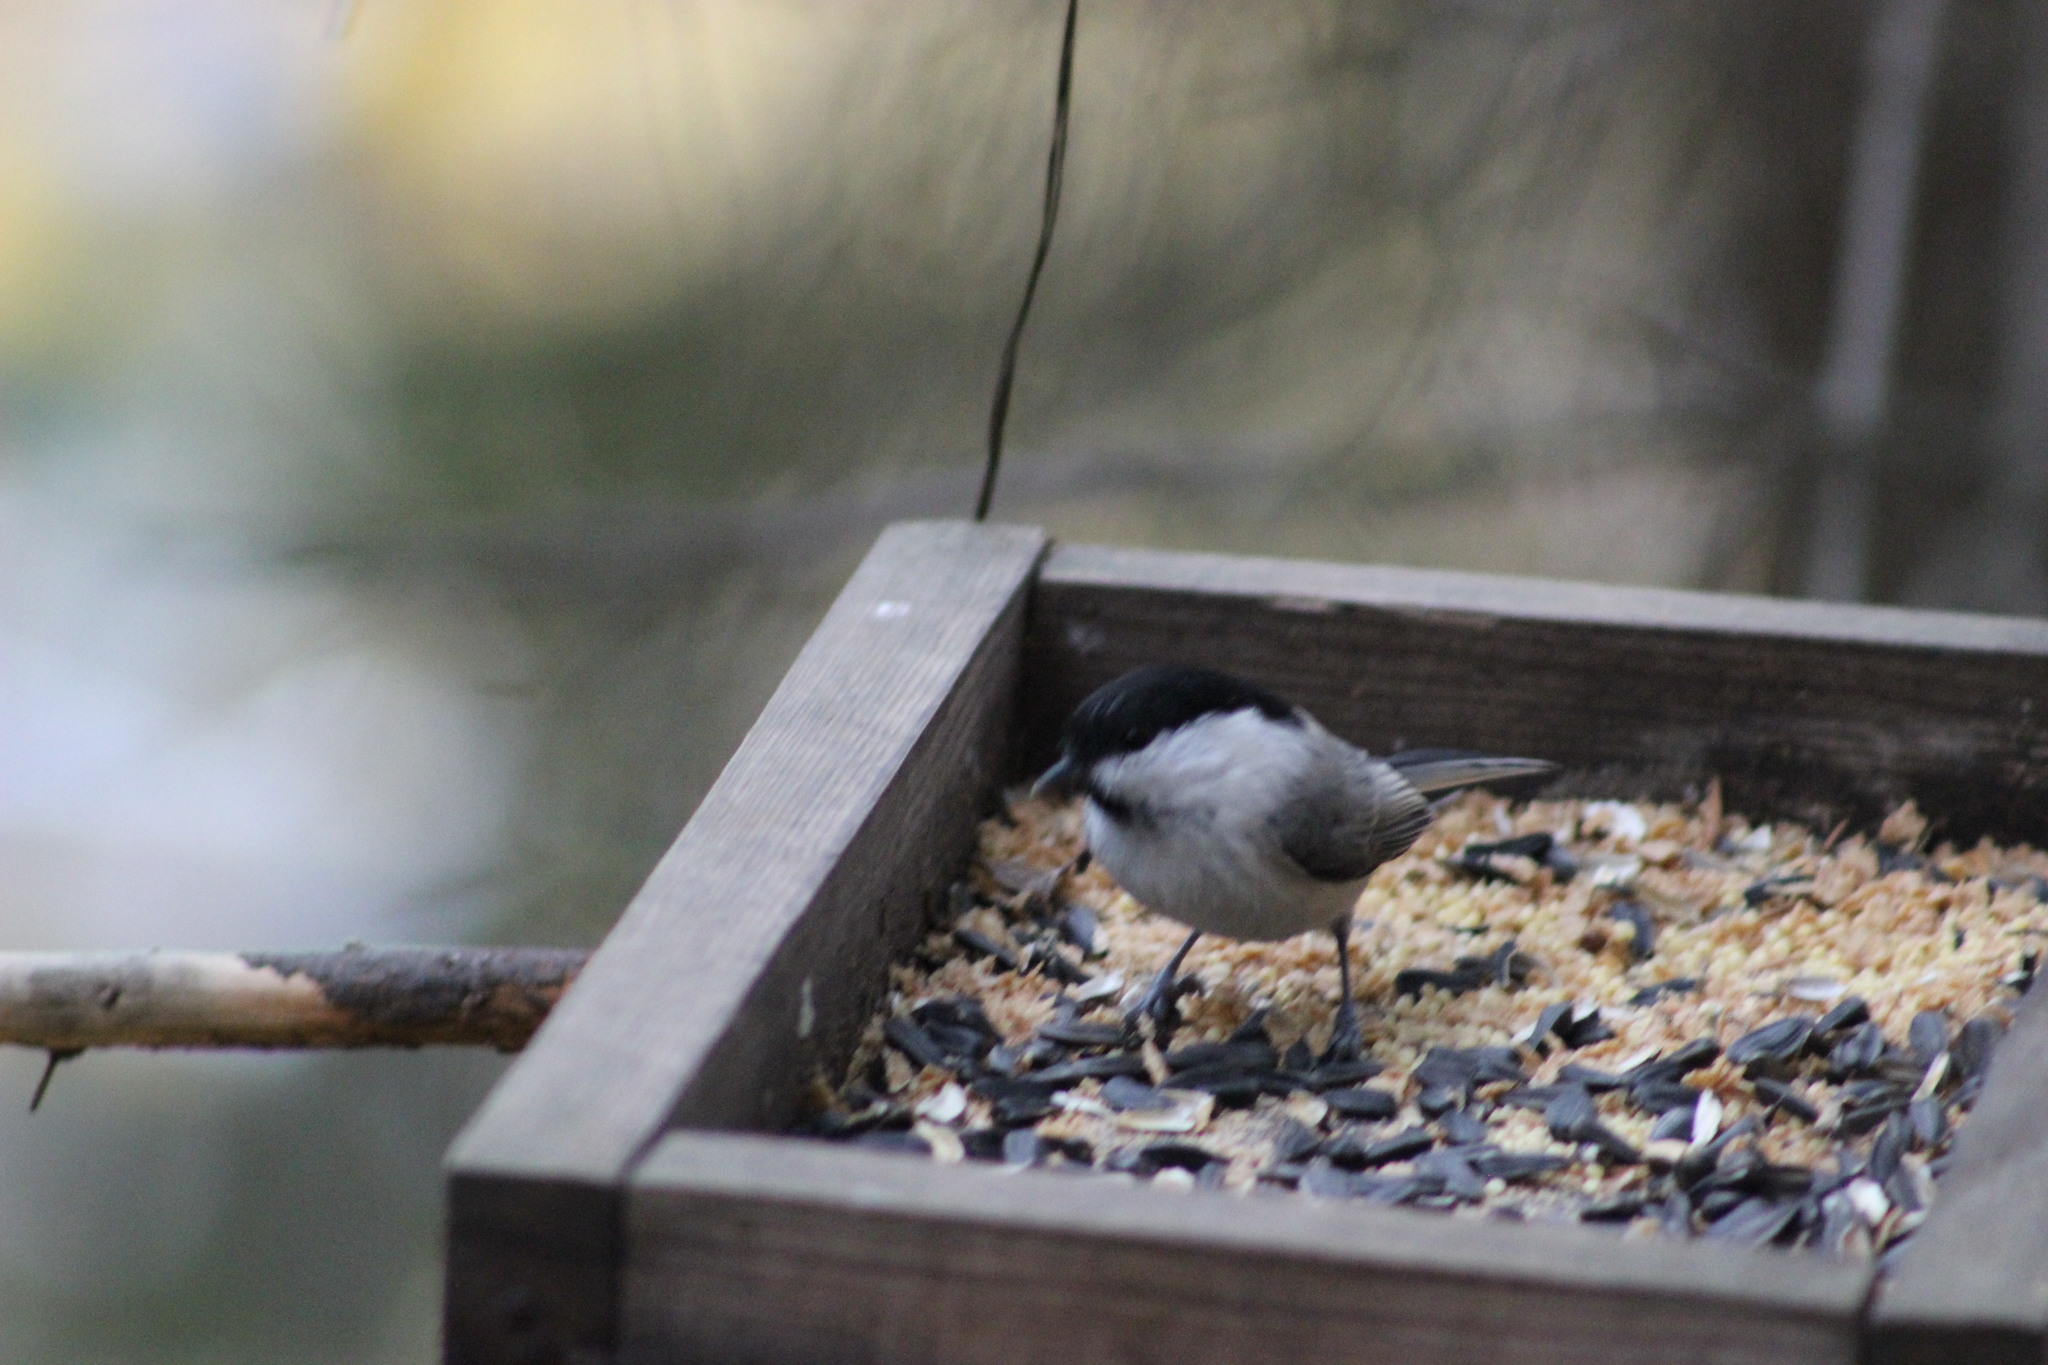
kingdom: Animalia
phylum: Chordata
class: Aves
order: Passeriformes
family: Paridae
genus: Poecile
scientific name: Poecile montanus
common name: Willow tit
